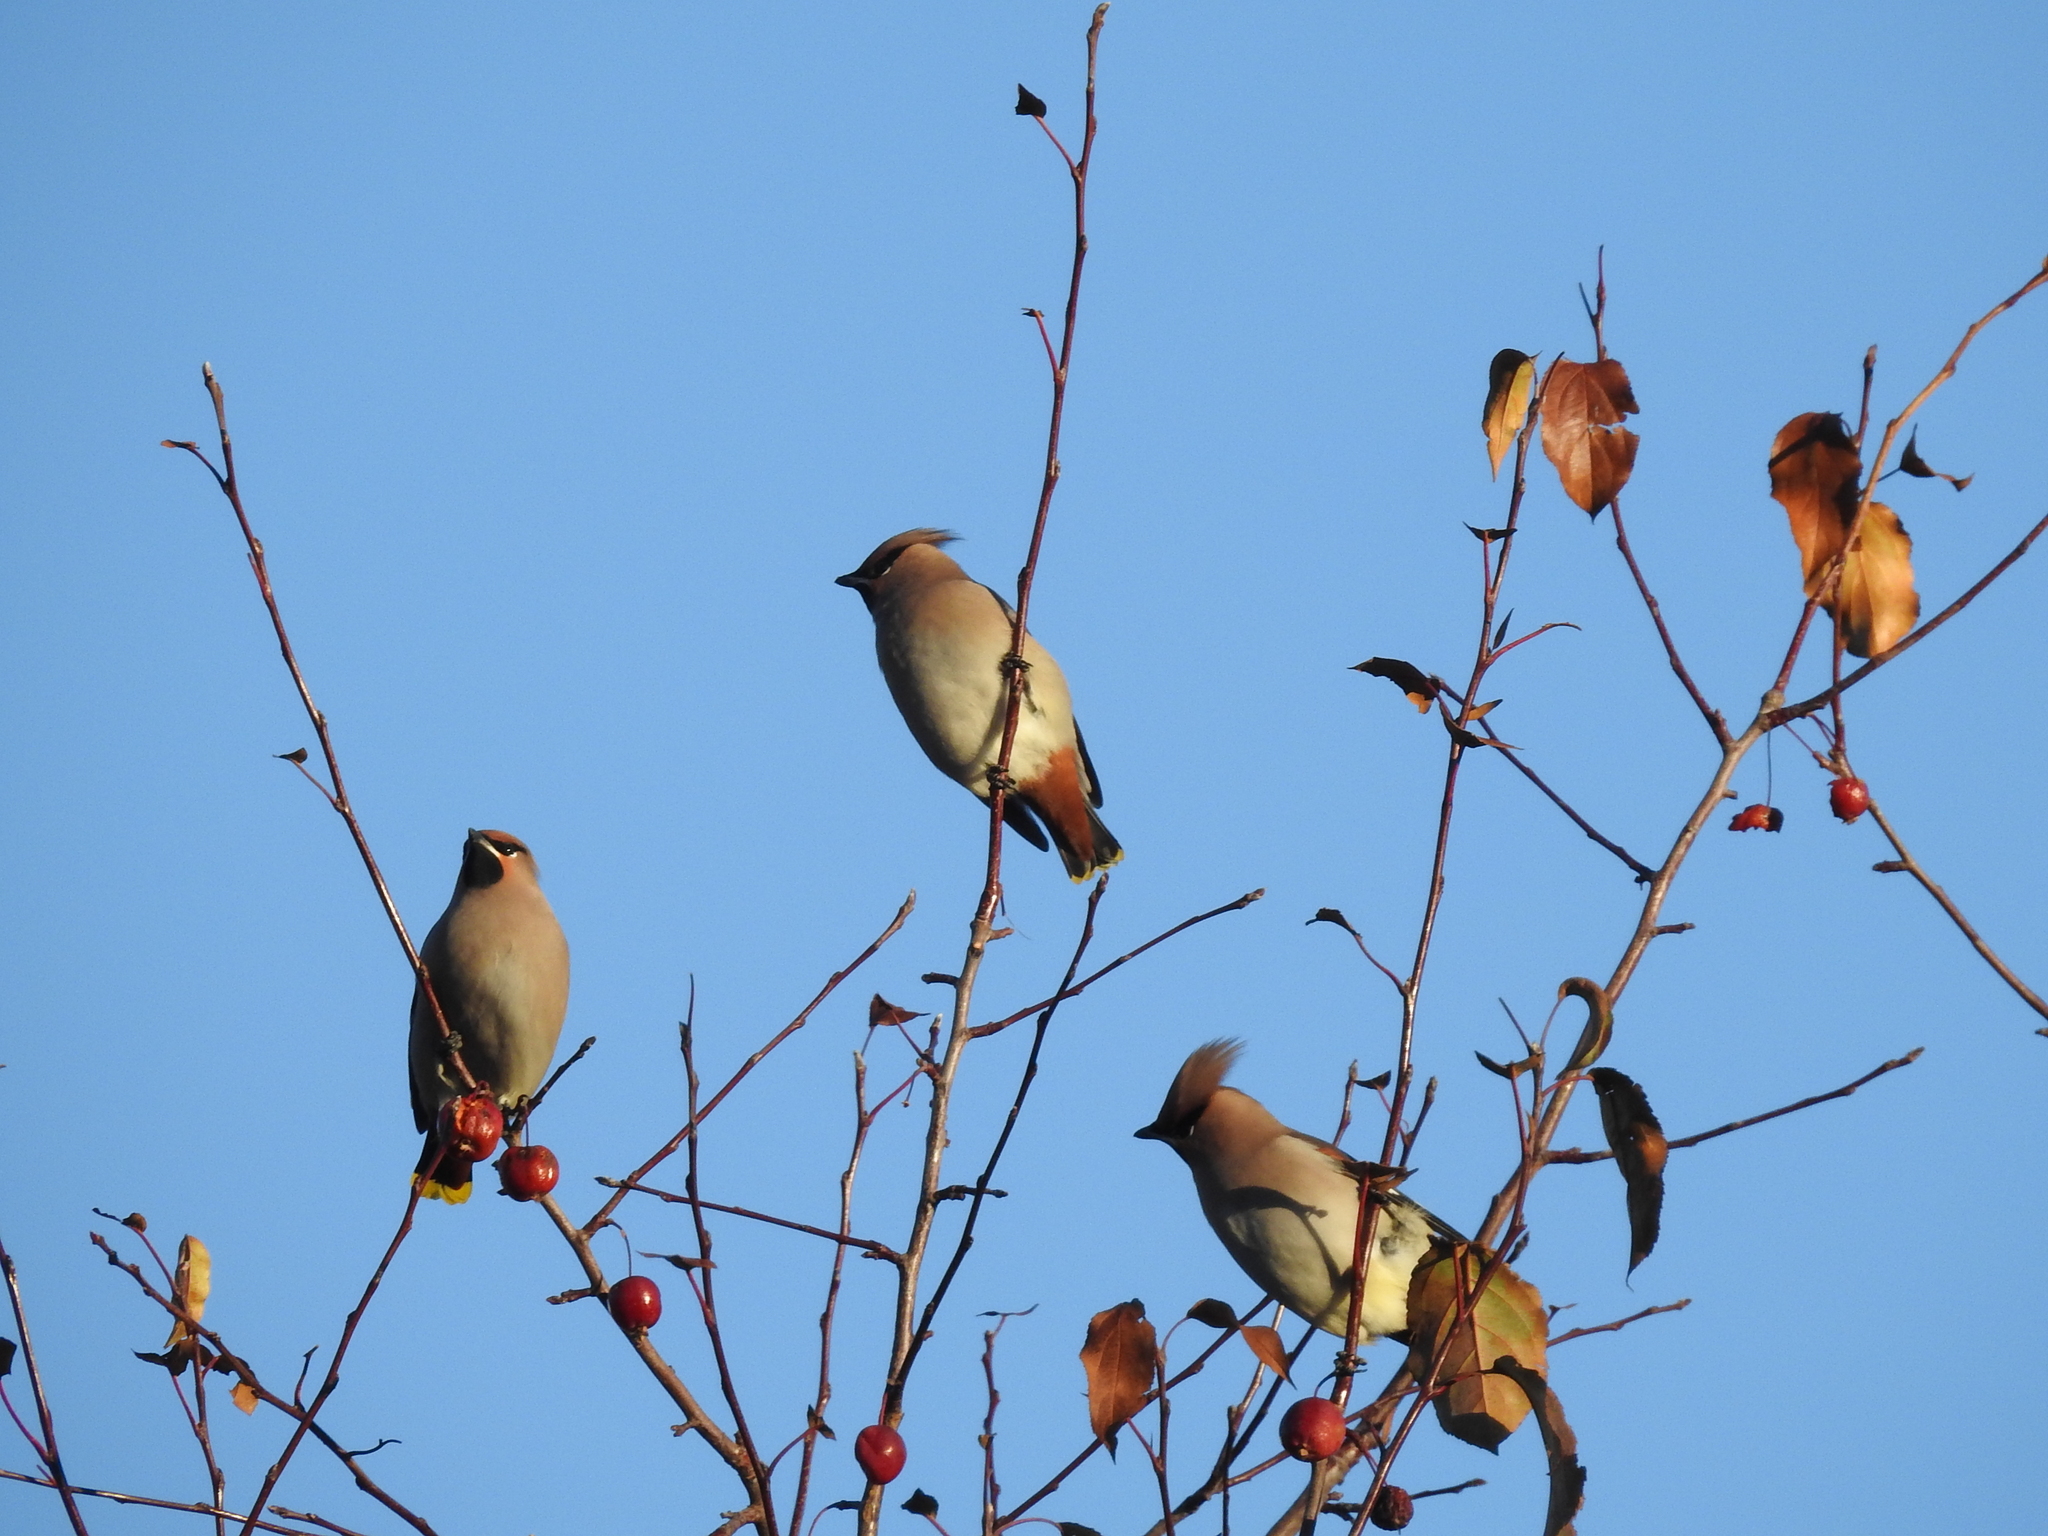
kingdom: Animalia
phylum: Chordata
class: Aves
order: Passeriformes
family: Bombycillidae
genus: Bombycilla
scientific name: Bombycilla garrulus
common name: Bohemian waxwing
